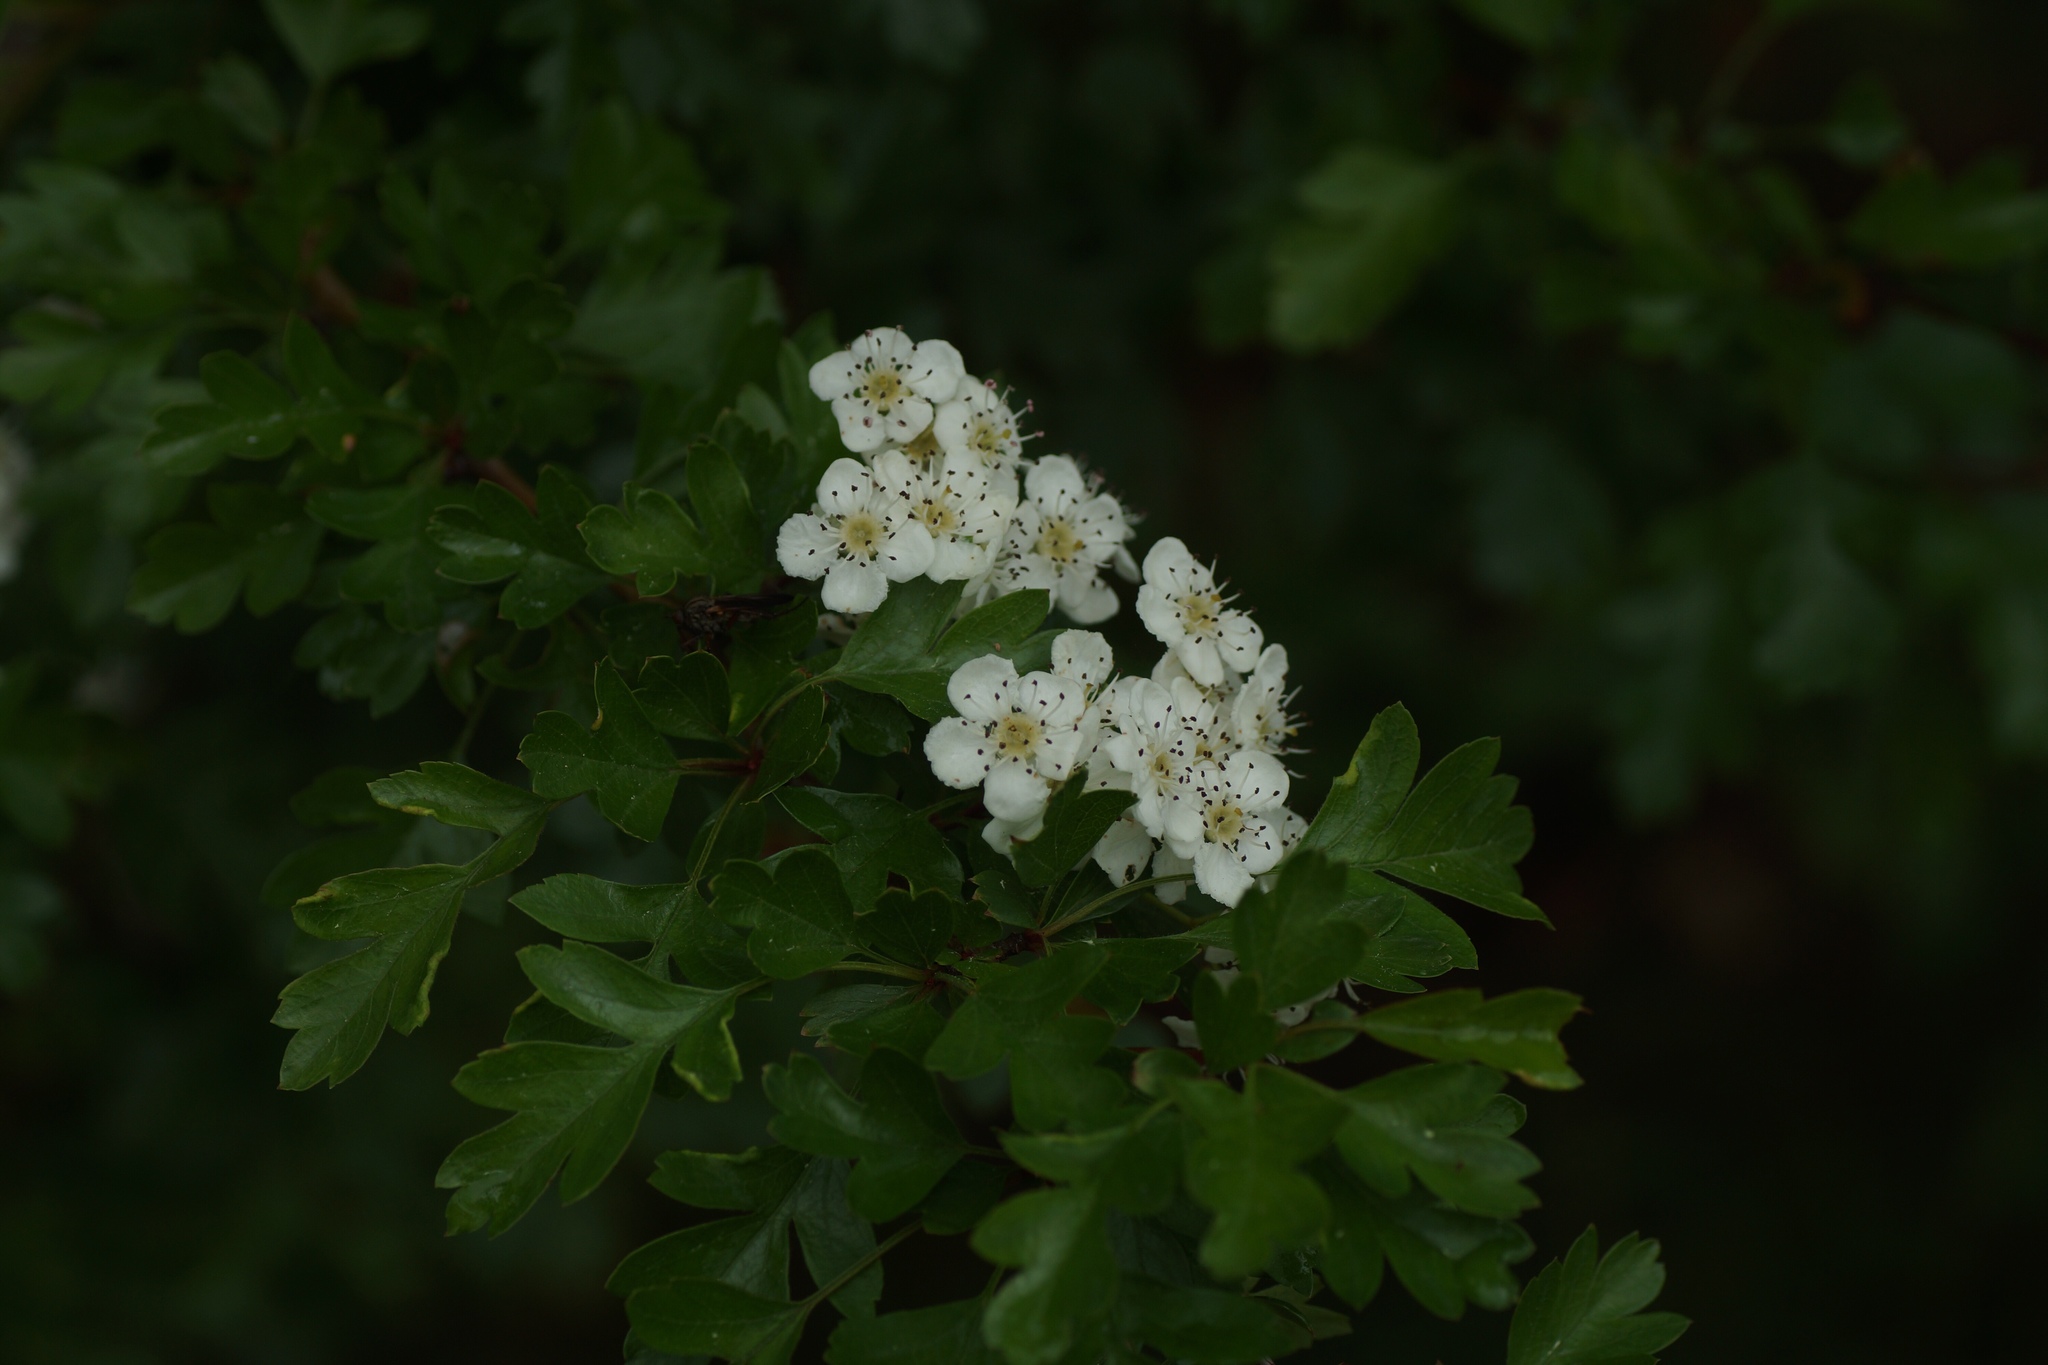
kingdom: Plantae
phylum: Tracheophyta
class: Magnoliopsida
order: Rosales
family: Rosaceae
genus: Crataegus
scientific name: Crataegus monogyna
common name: Hawthorn
